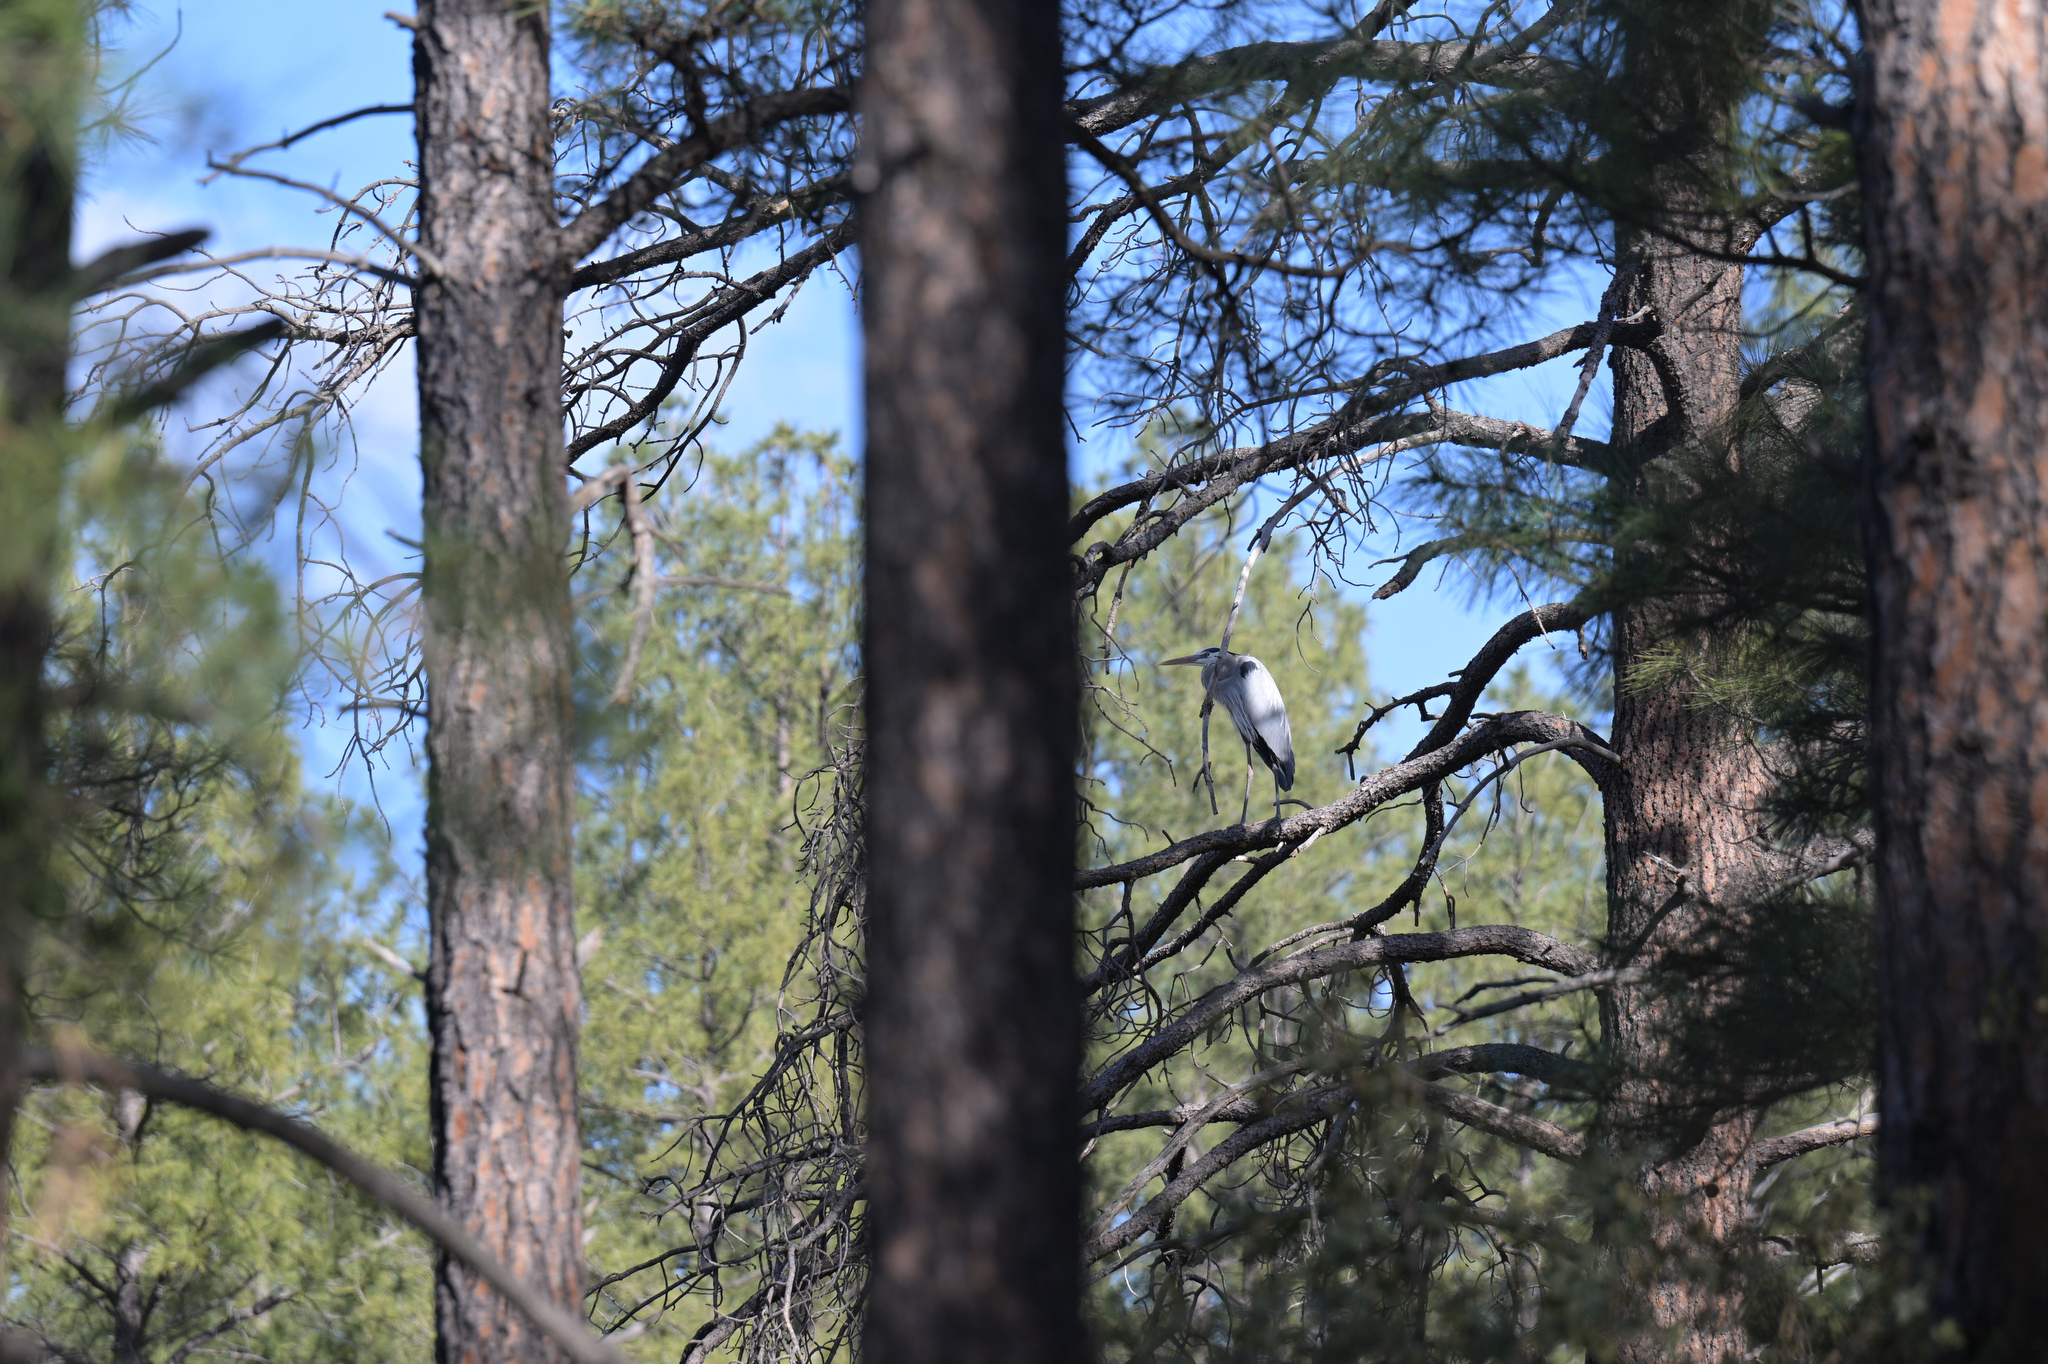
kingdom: Animalia
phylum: Chordata
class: Aves
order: Pelecaniformes
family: Ardeidae
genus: Ardea
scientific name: Ardea herodias
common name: Great blue heron
